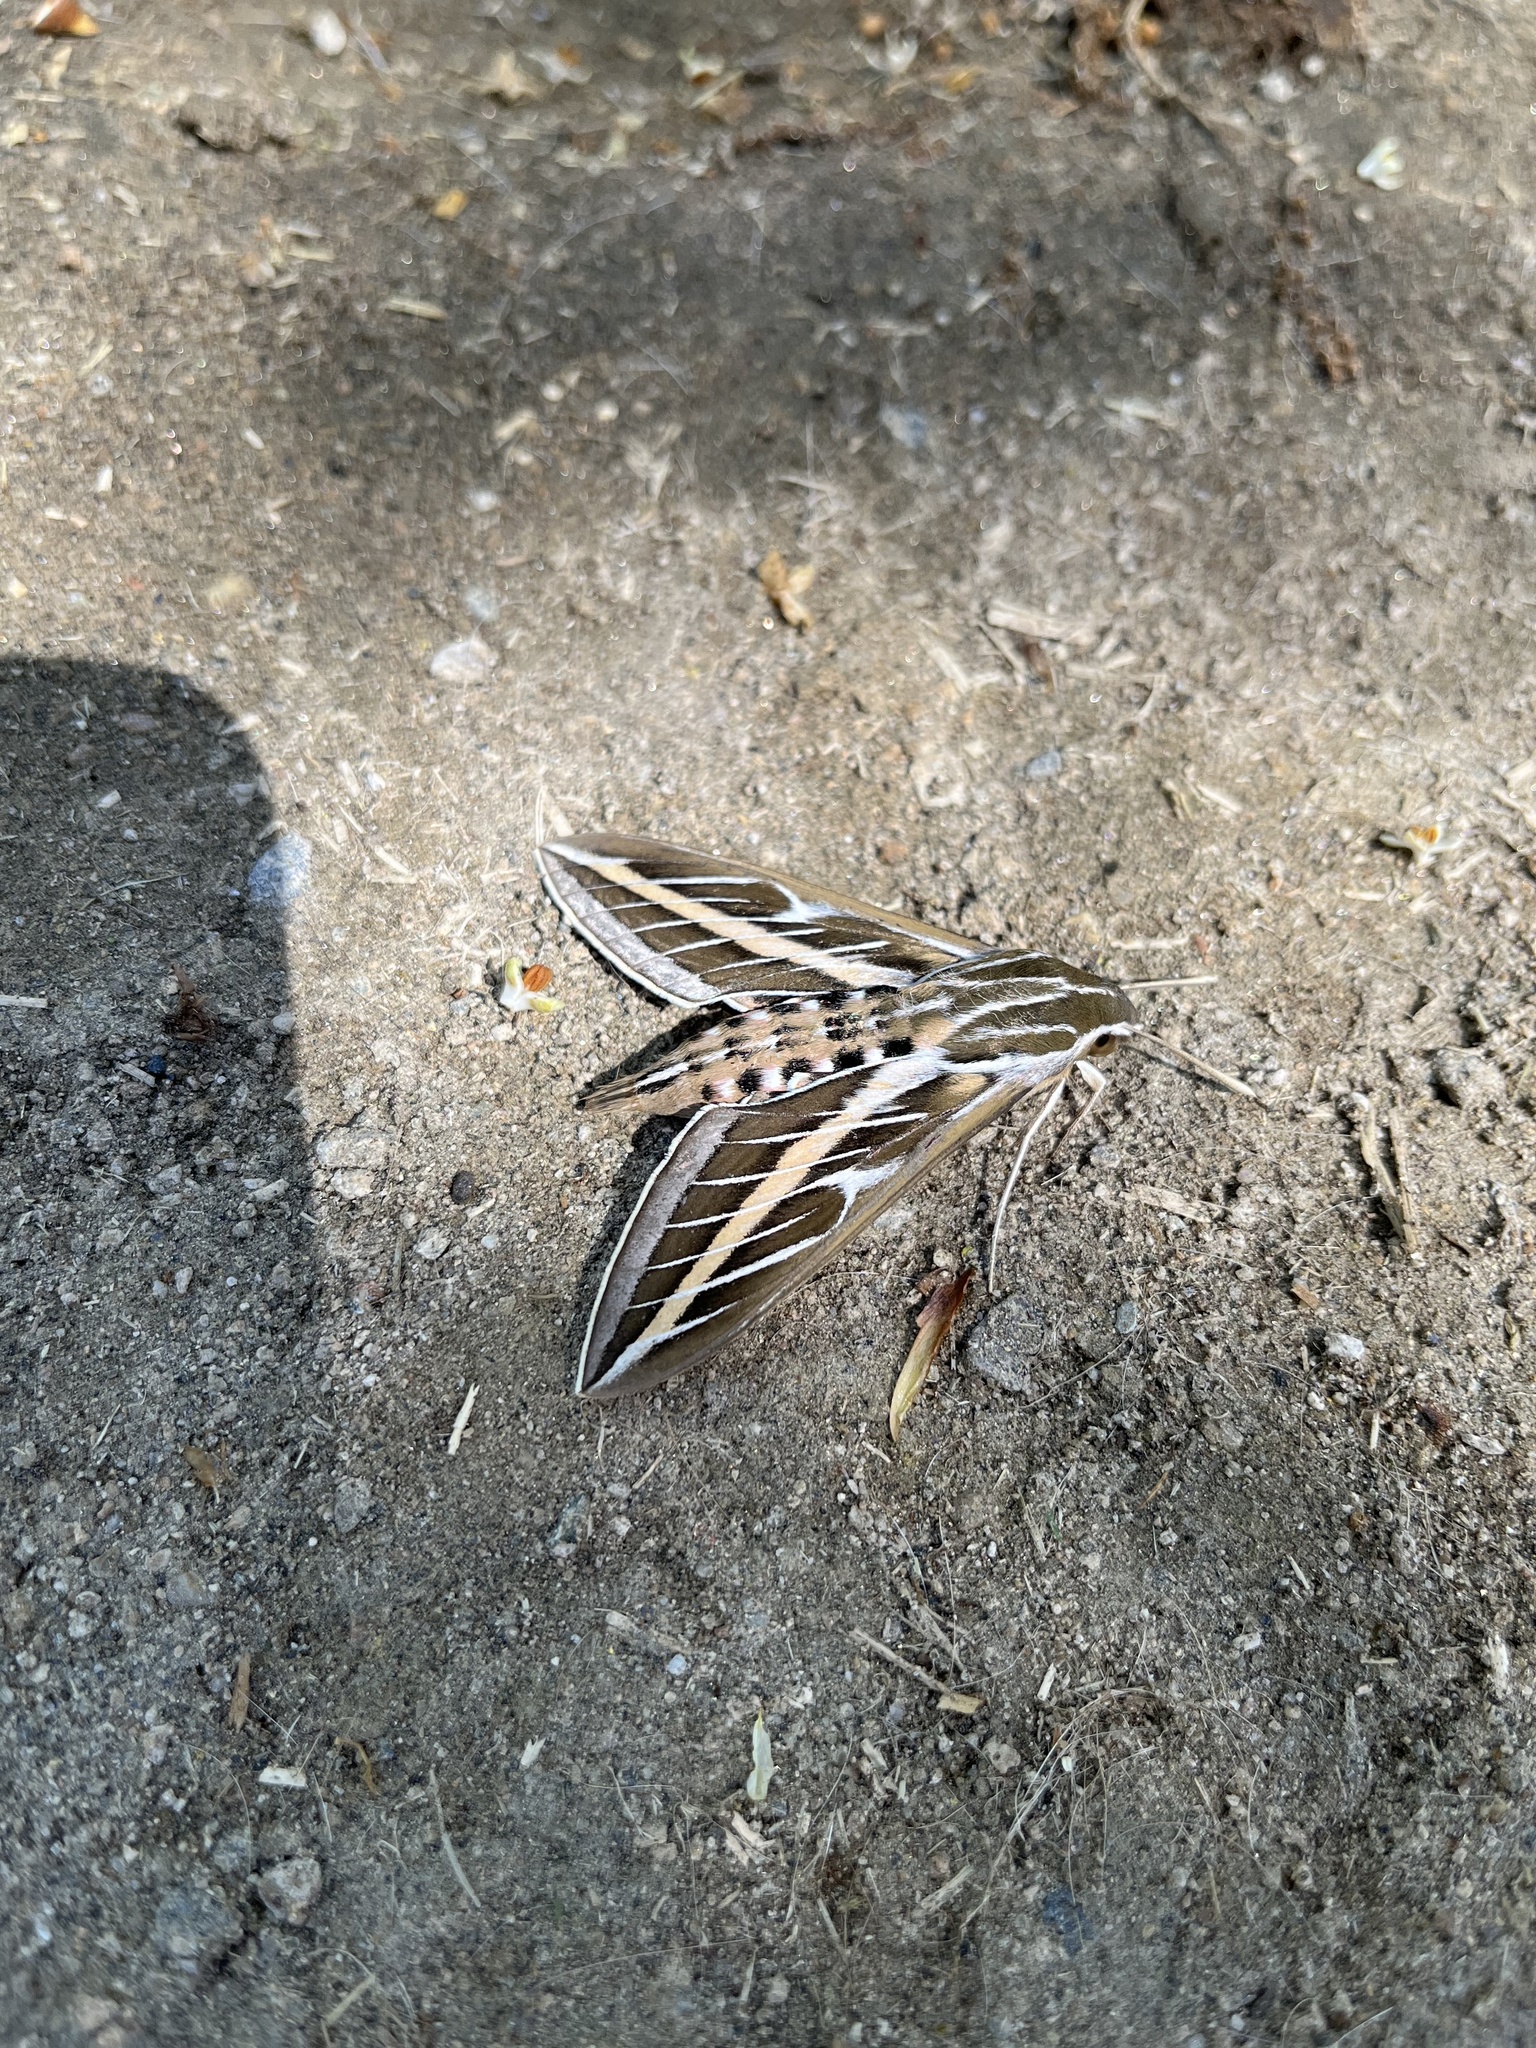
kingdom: Animalia
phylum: Arthropoda
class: Insecta
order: Lepidoptera
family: Sphingidae
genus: Hyles
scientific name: Hyles lineata
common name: White-lined sphinx
